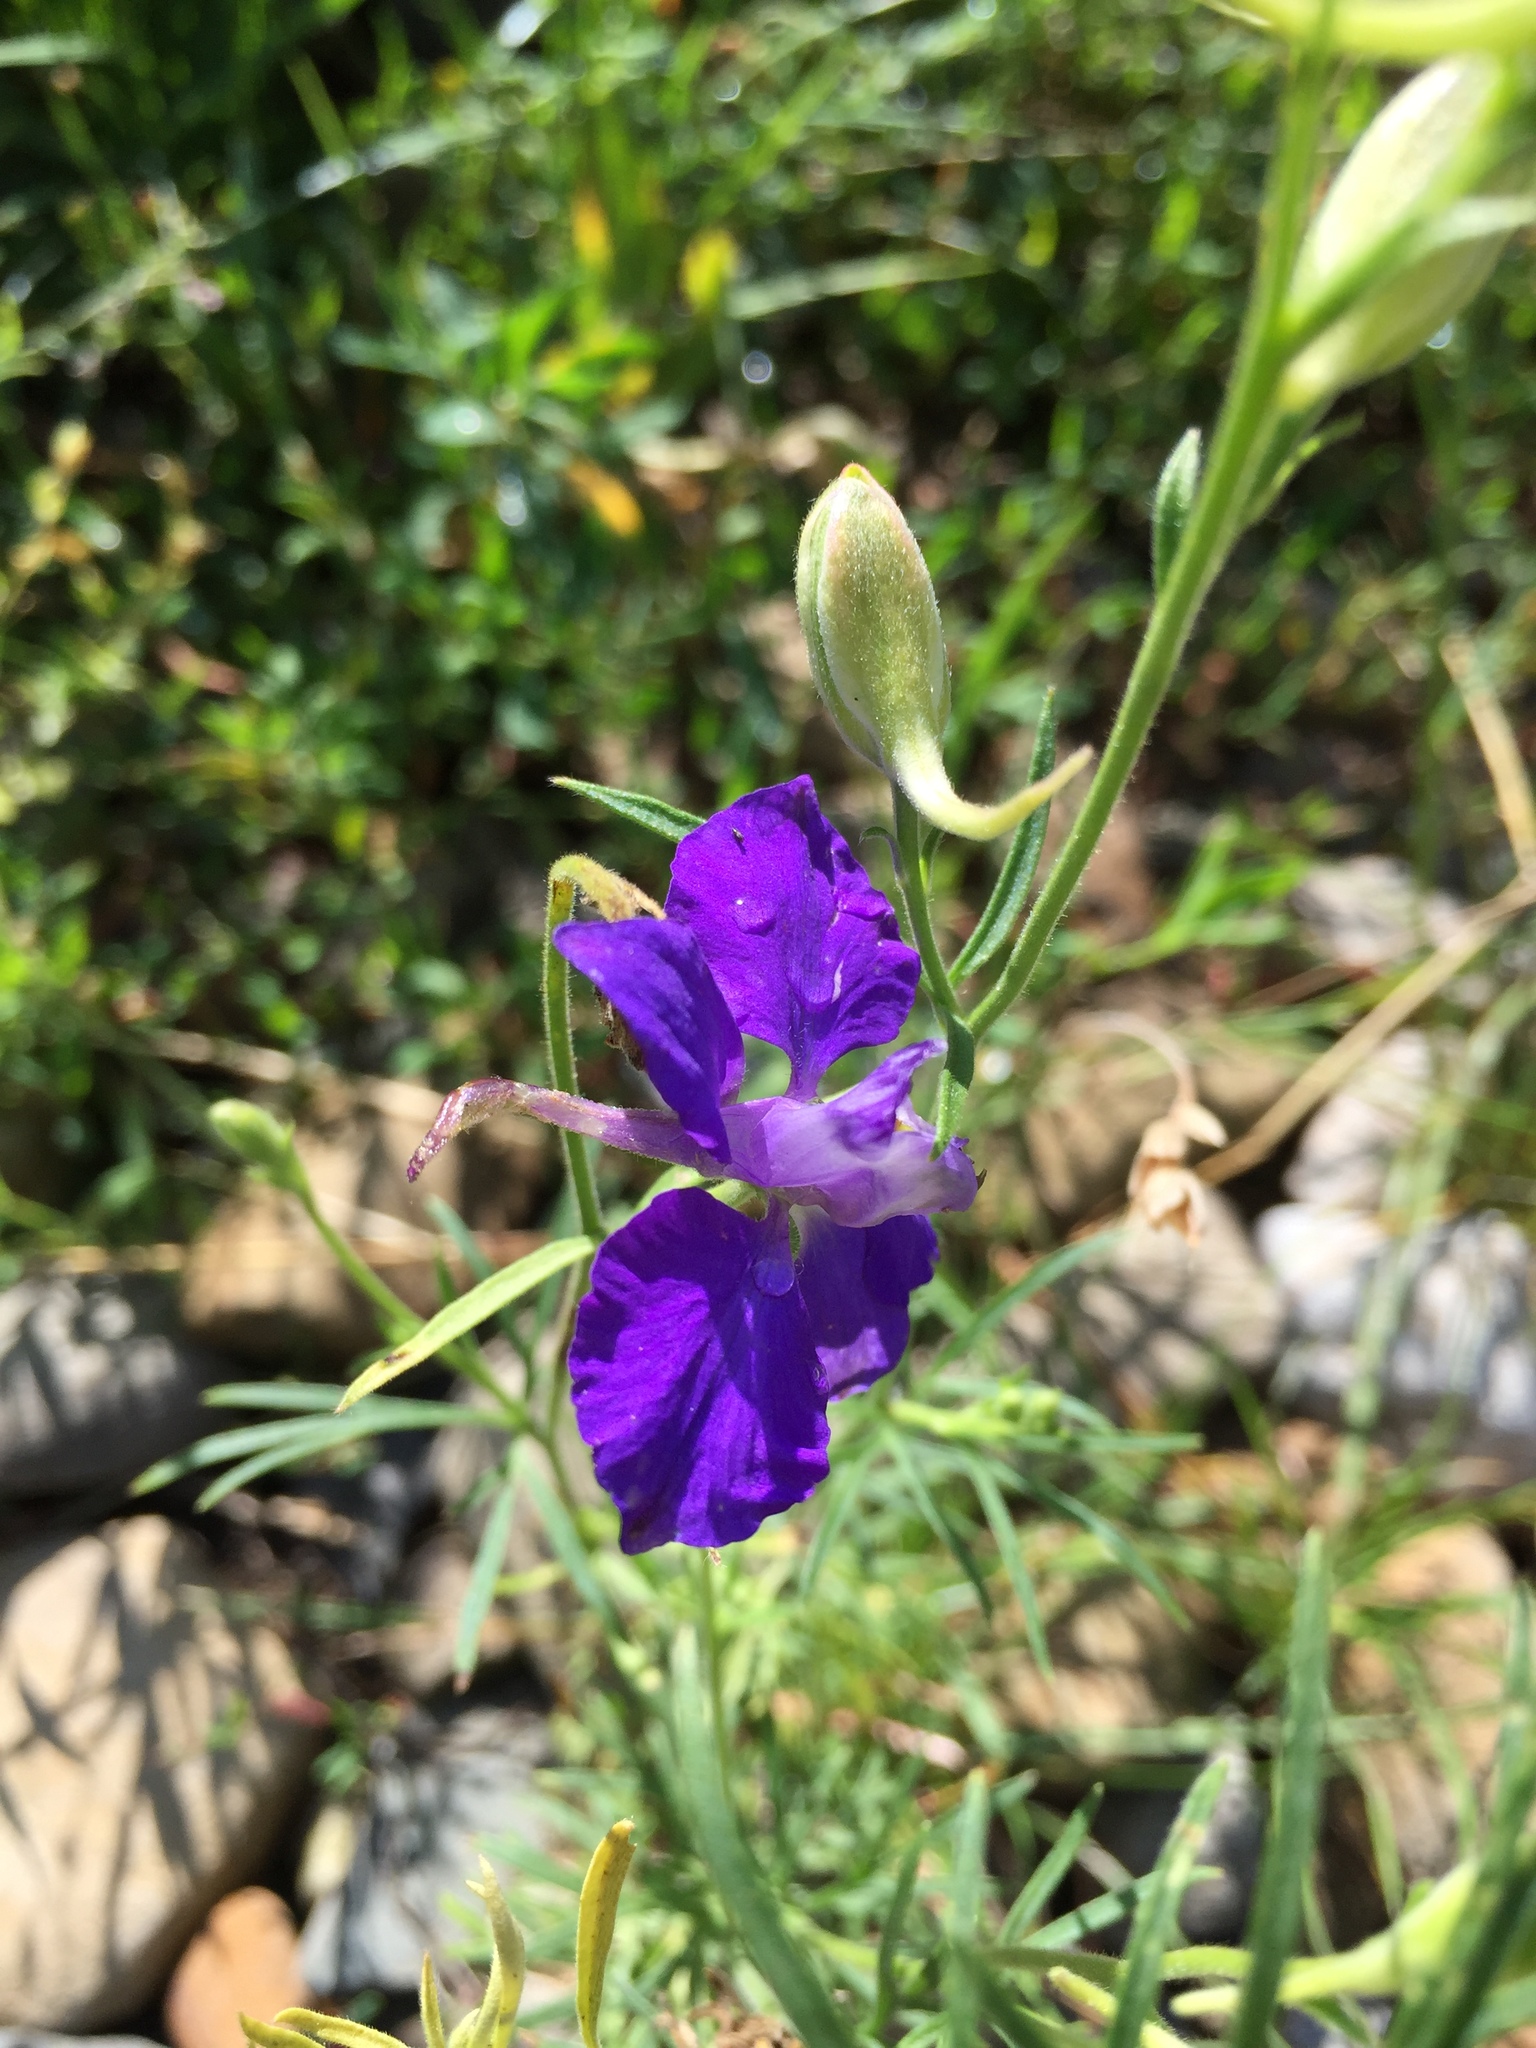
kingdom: Plantae
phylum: Tracheophyta
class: Magnoliopsida
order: Ranunculales
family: Ranunculaceae
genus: Delphinium
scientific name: Delphinium consolida
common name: Branching larkspur
